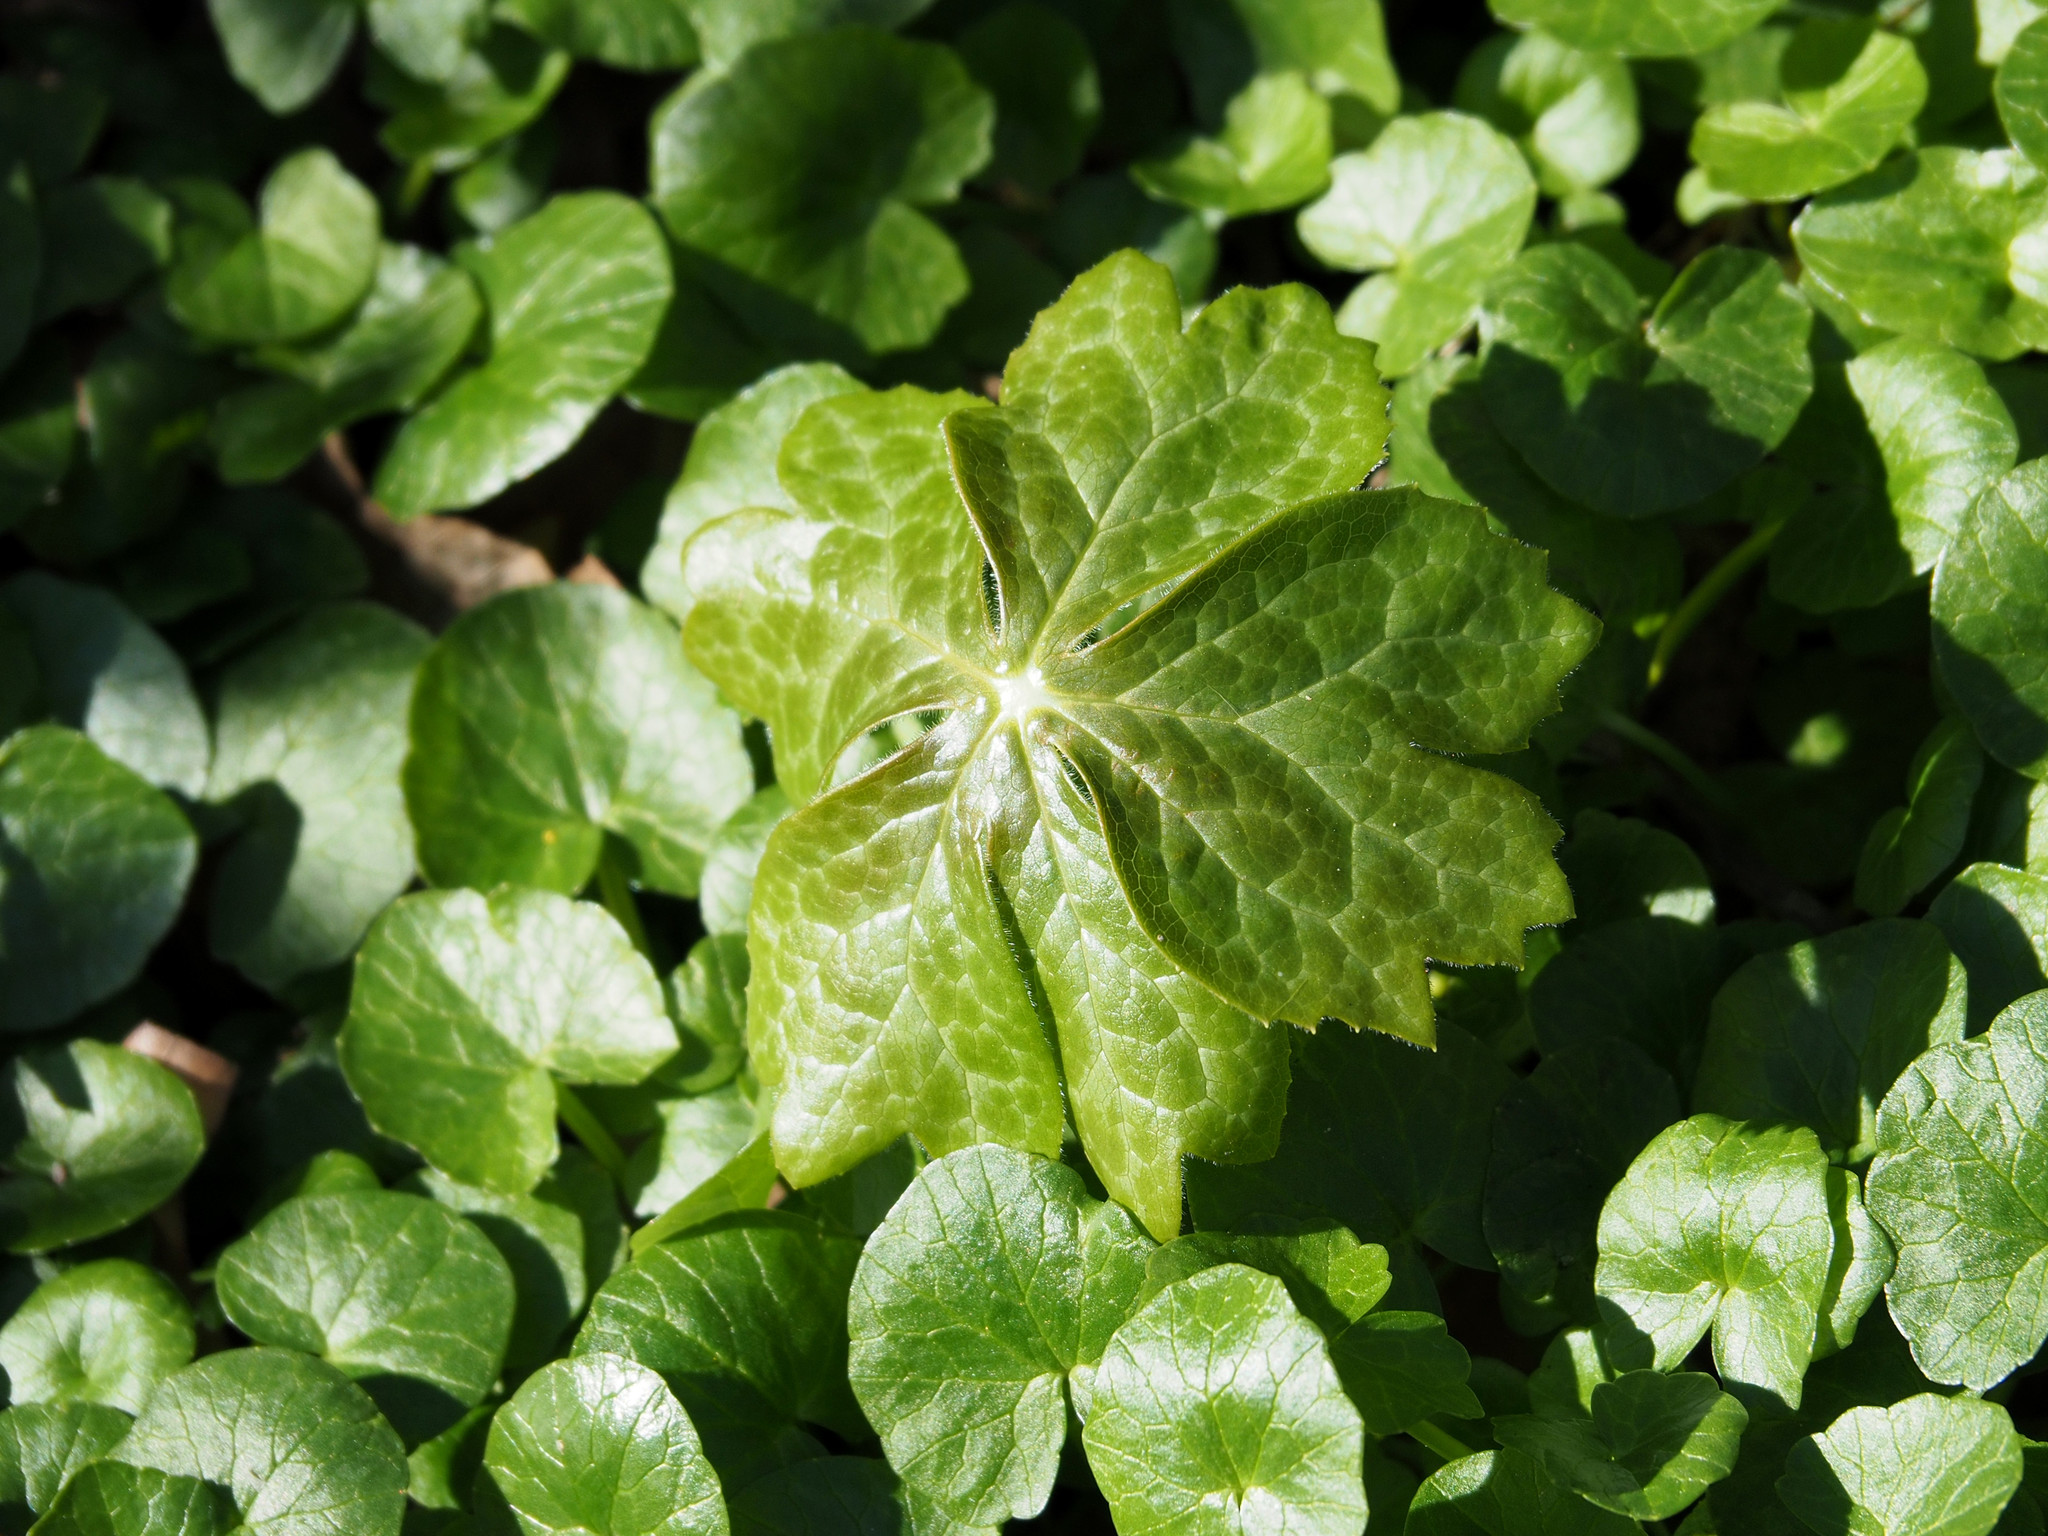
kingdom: Plantae
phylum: Tracheophyta
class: Magnoliopsida
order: Ranunculales
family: Berberidaceae
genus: Podophyllum
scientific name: Podophyllum peltatum
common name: Wild mandrake
